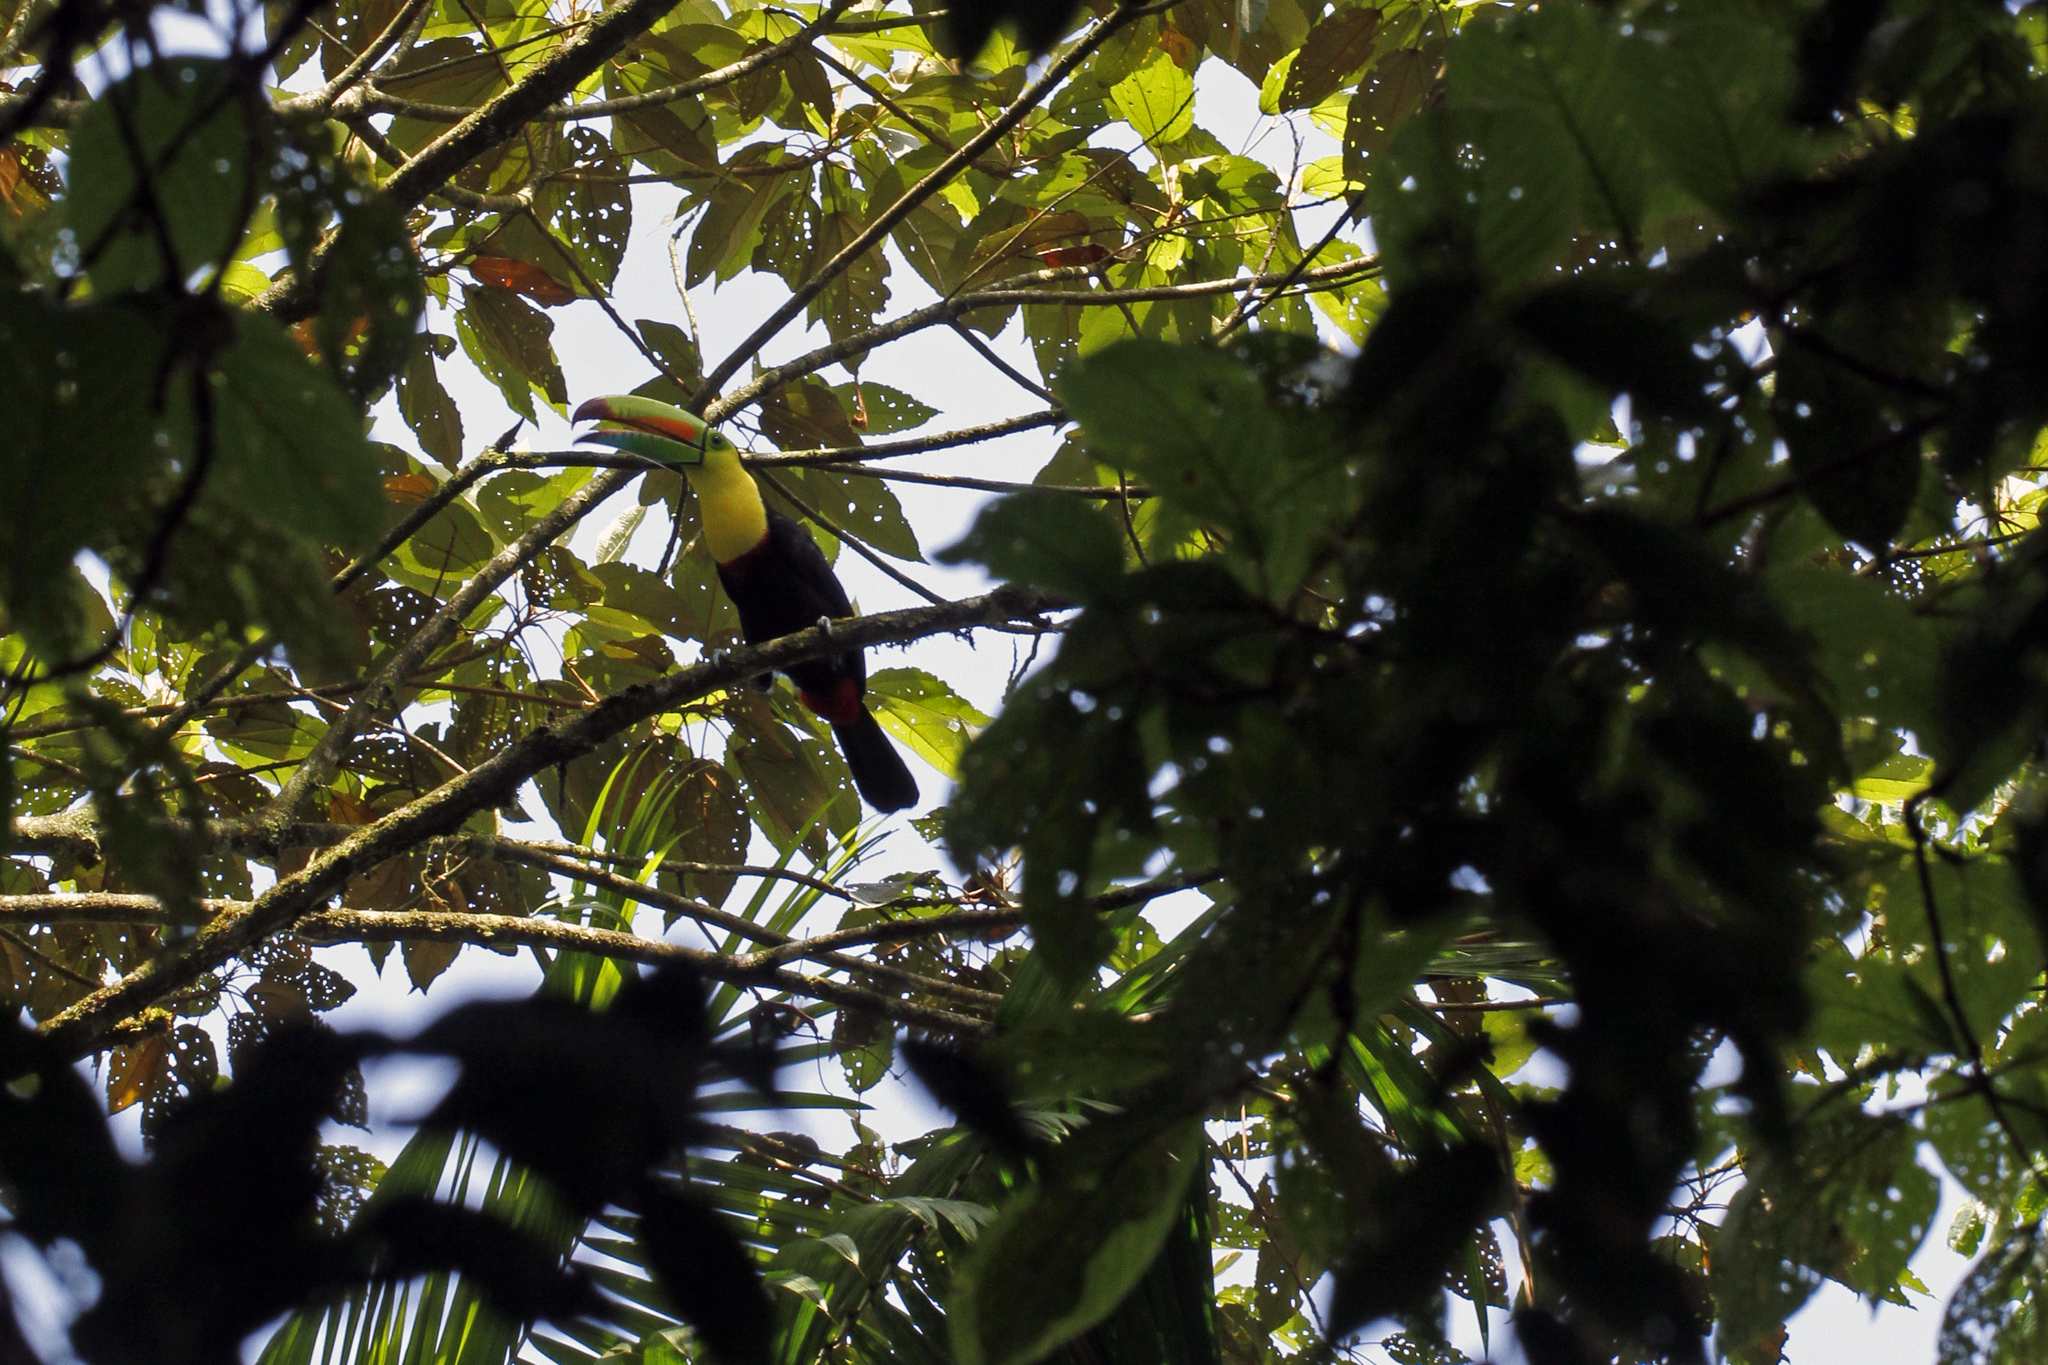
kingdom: Animalia
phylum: Chordata
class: Aves
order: Piciformes
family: Ramphastidae
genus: Ramphastos
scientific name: Ramphastos sulfuratus
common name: Keel-billed toucan
